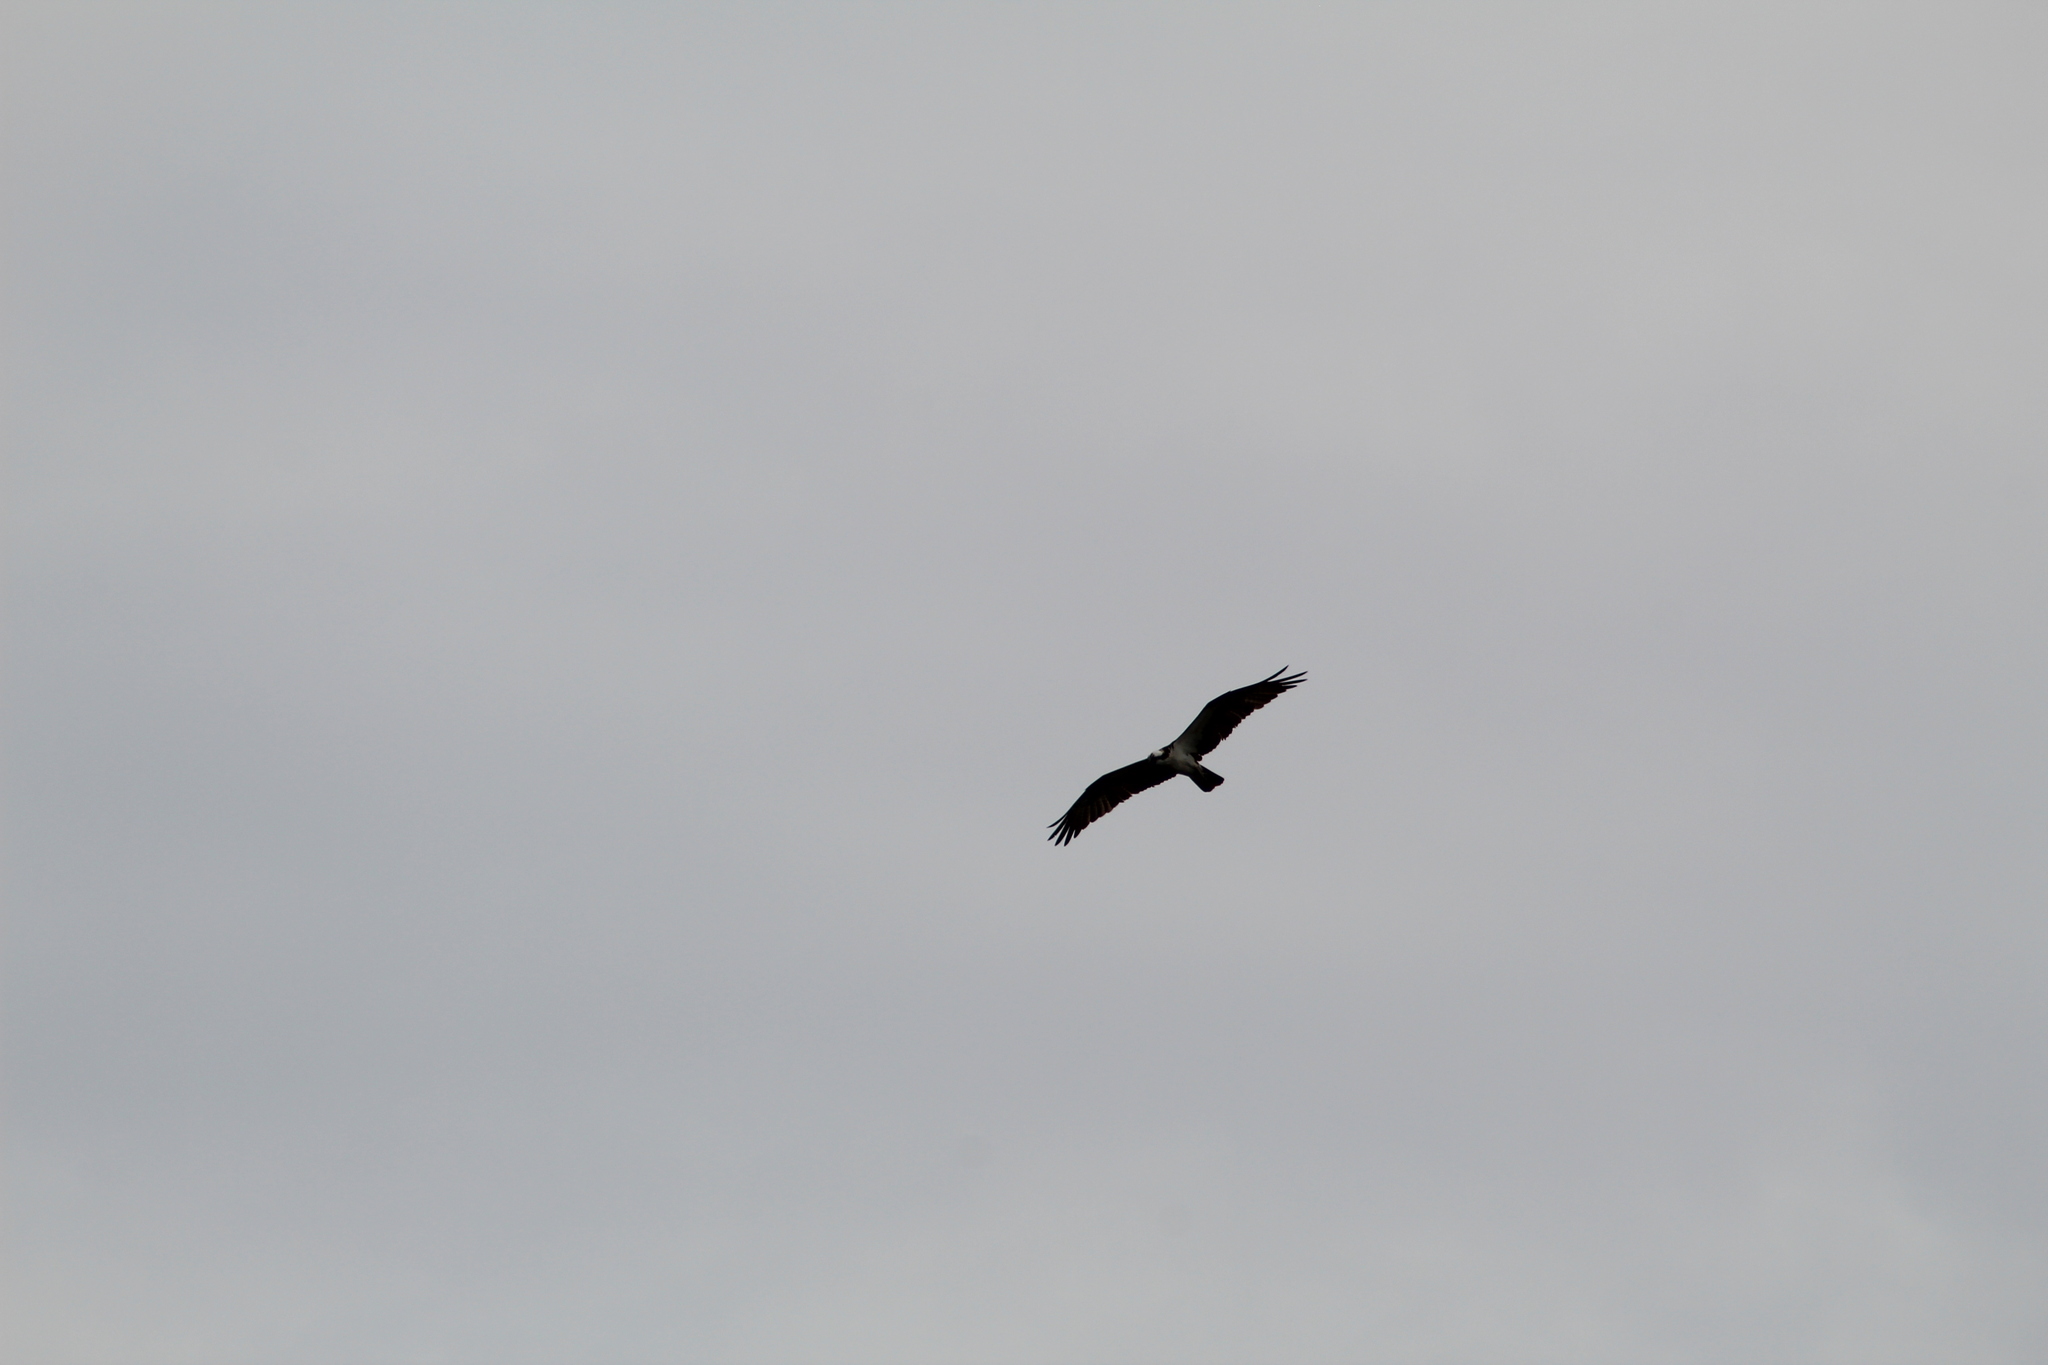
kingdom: Animalia
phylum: Chordata
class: Aves
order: Accipitriformes
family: Pandionidae
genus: Pandion
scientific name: Pandion haliaetus
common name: Osprey
